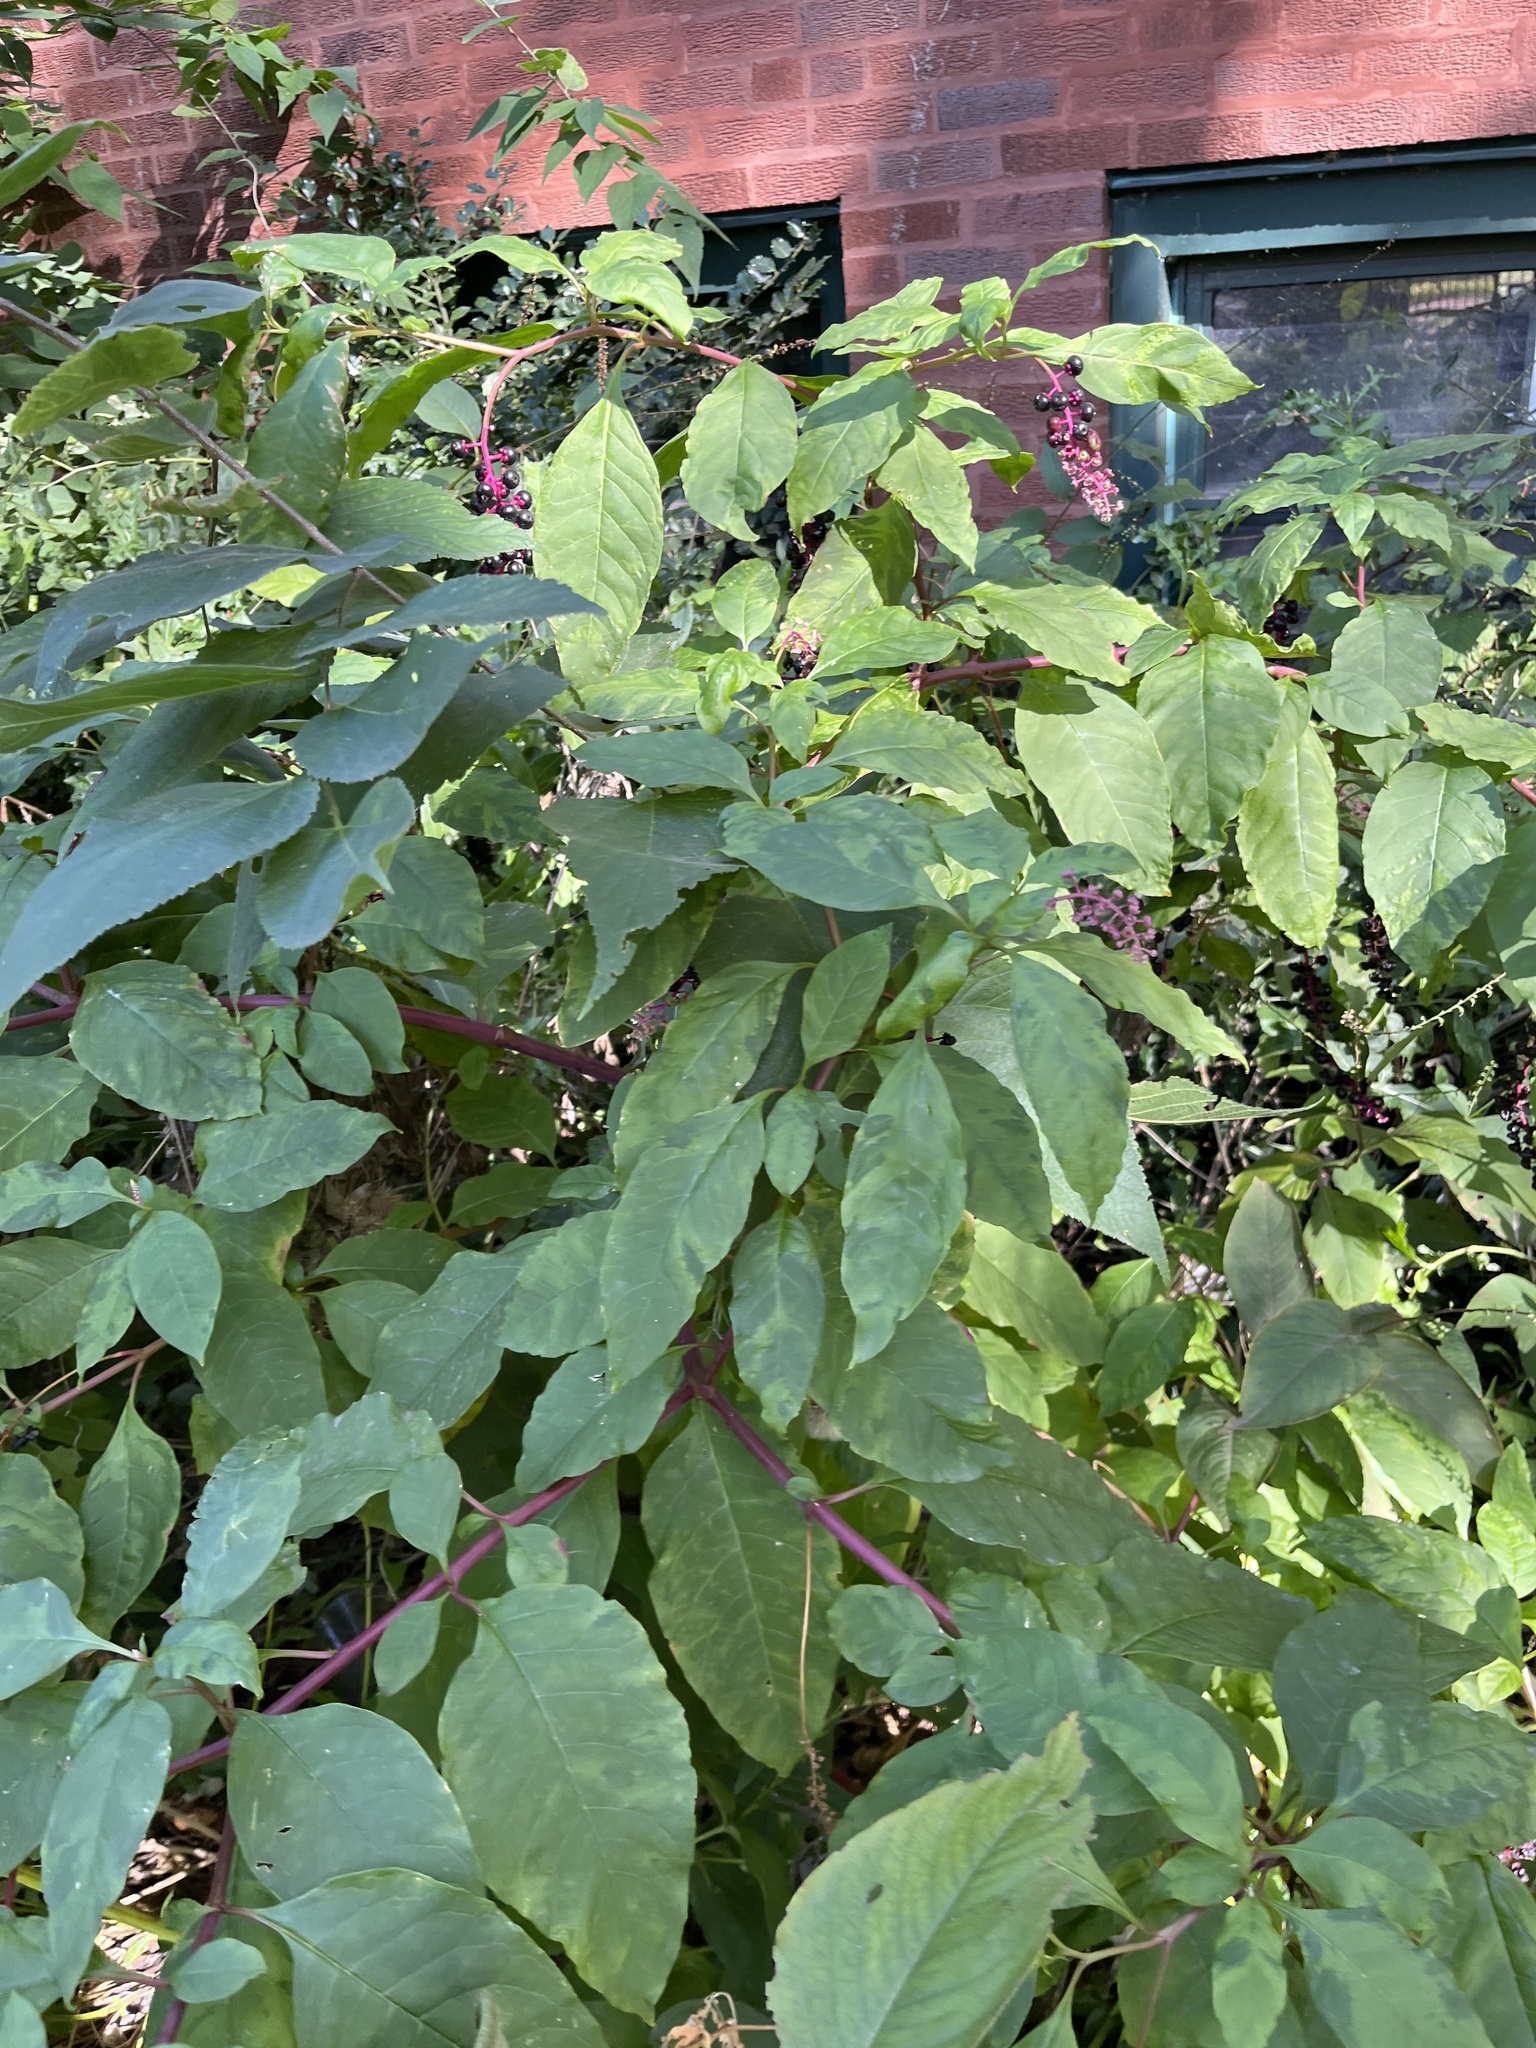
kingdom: Plantae
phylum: Tracheophyta
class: Magnoliopsida
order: Caryophyllales
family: Phytolaccaceae
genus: Phytolacca
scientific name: Phytolacca americana
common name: American pokeweed
